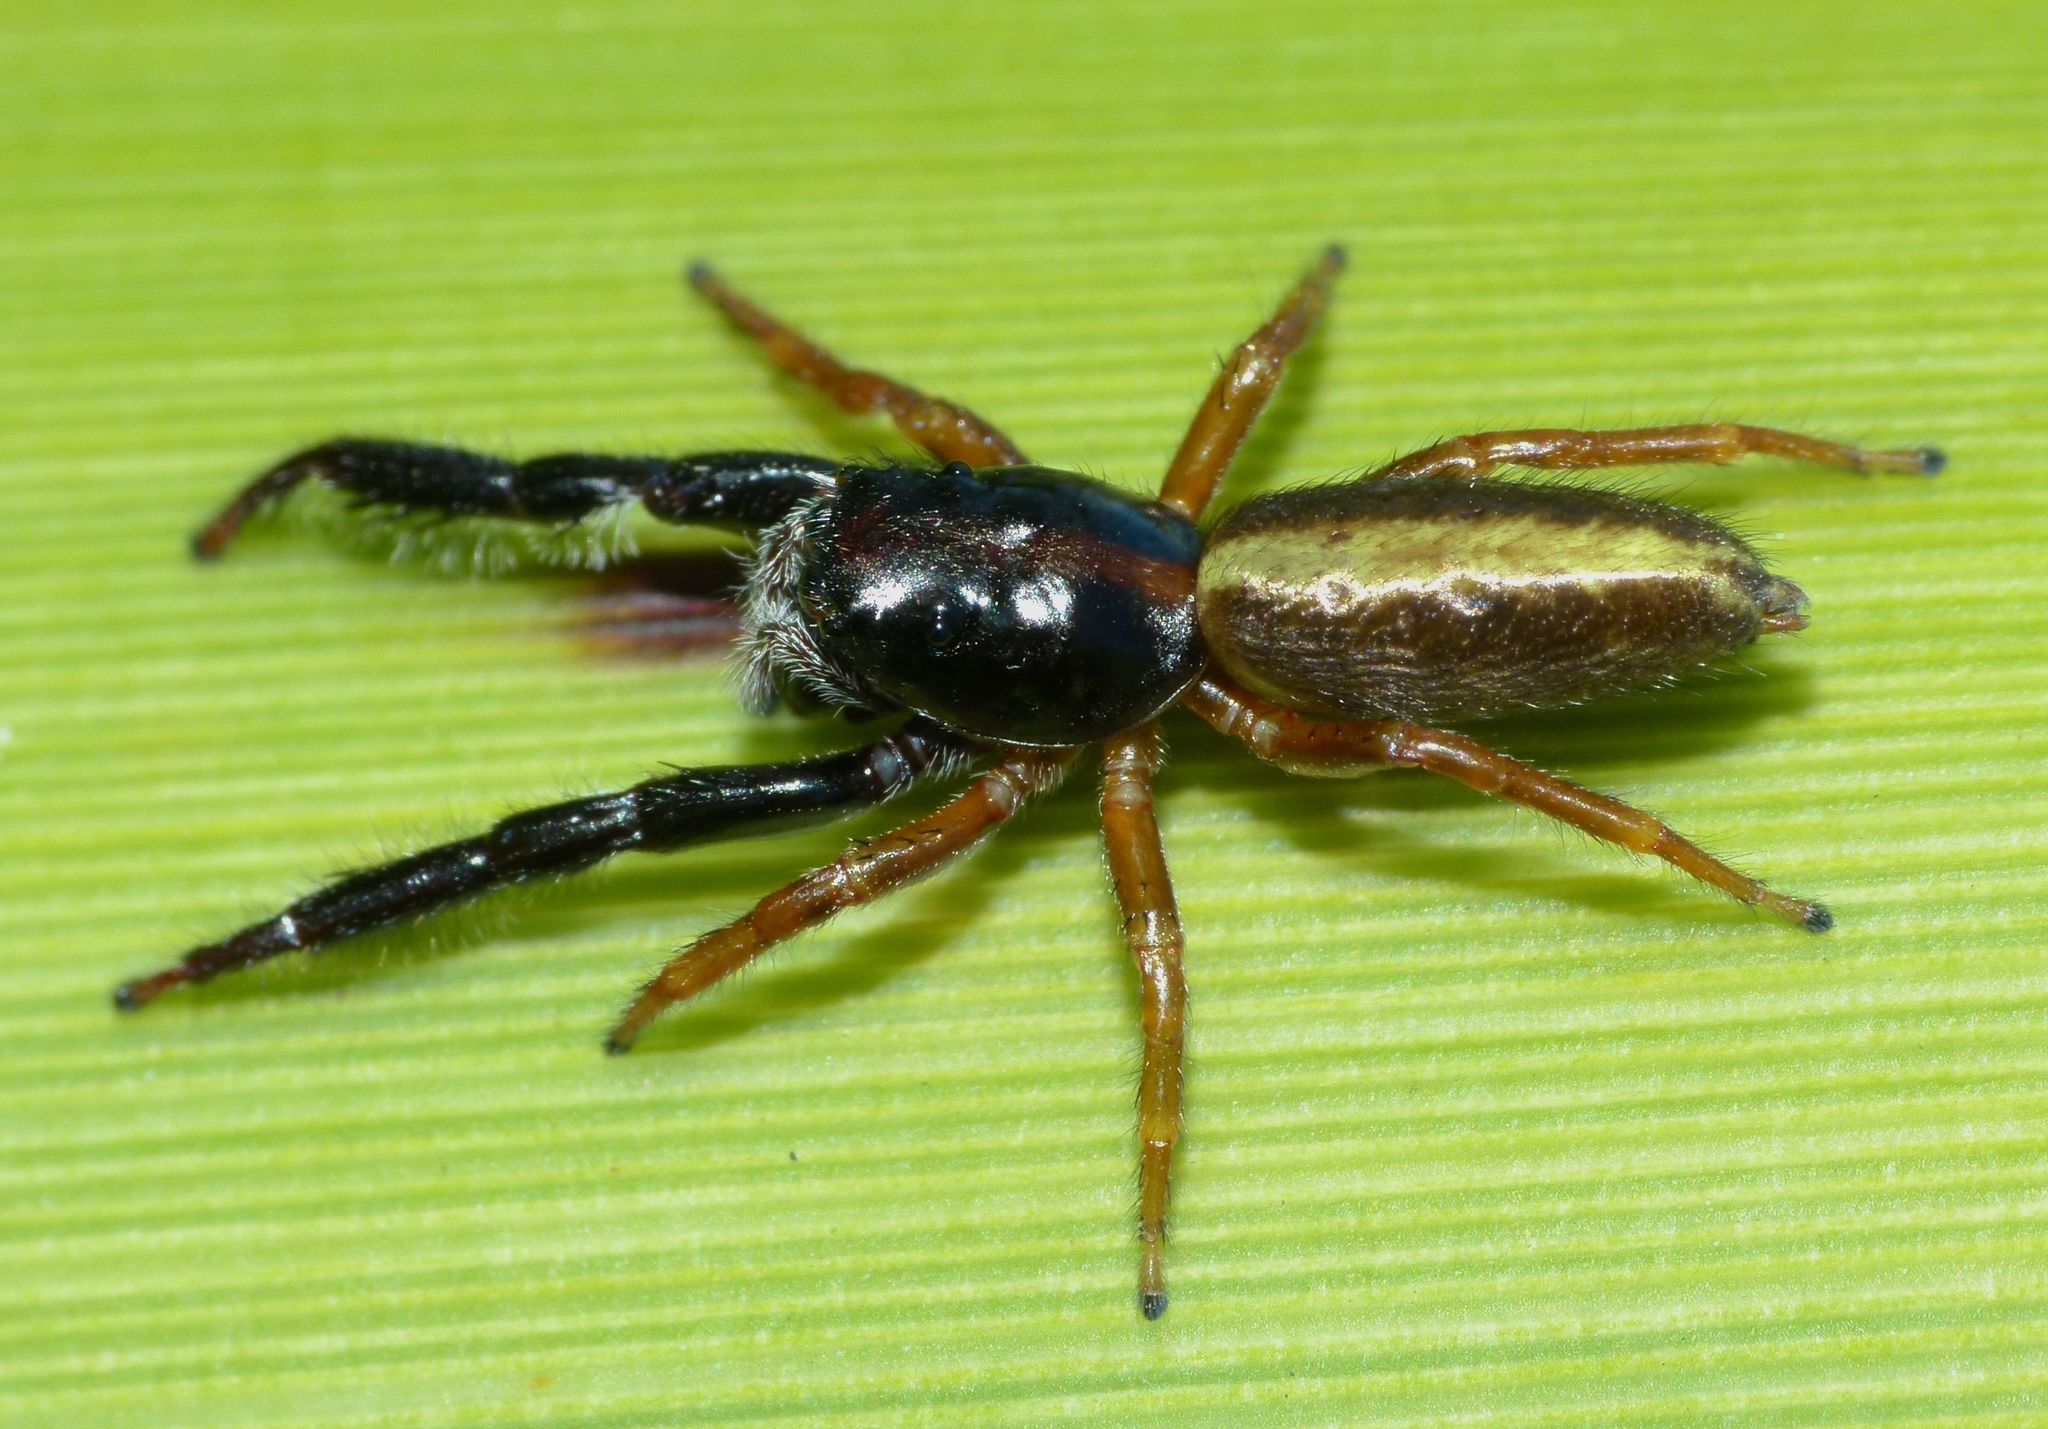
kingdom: Animalia
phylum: Arthropoda
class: Arachnida
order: Araneae
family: Salticidae
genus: Trite
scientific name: Trite planiceps
